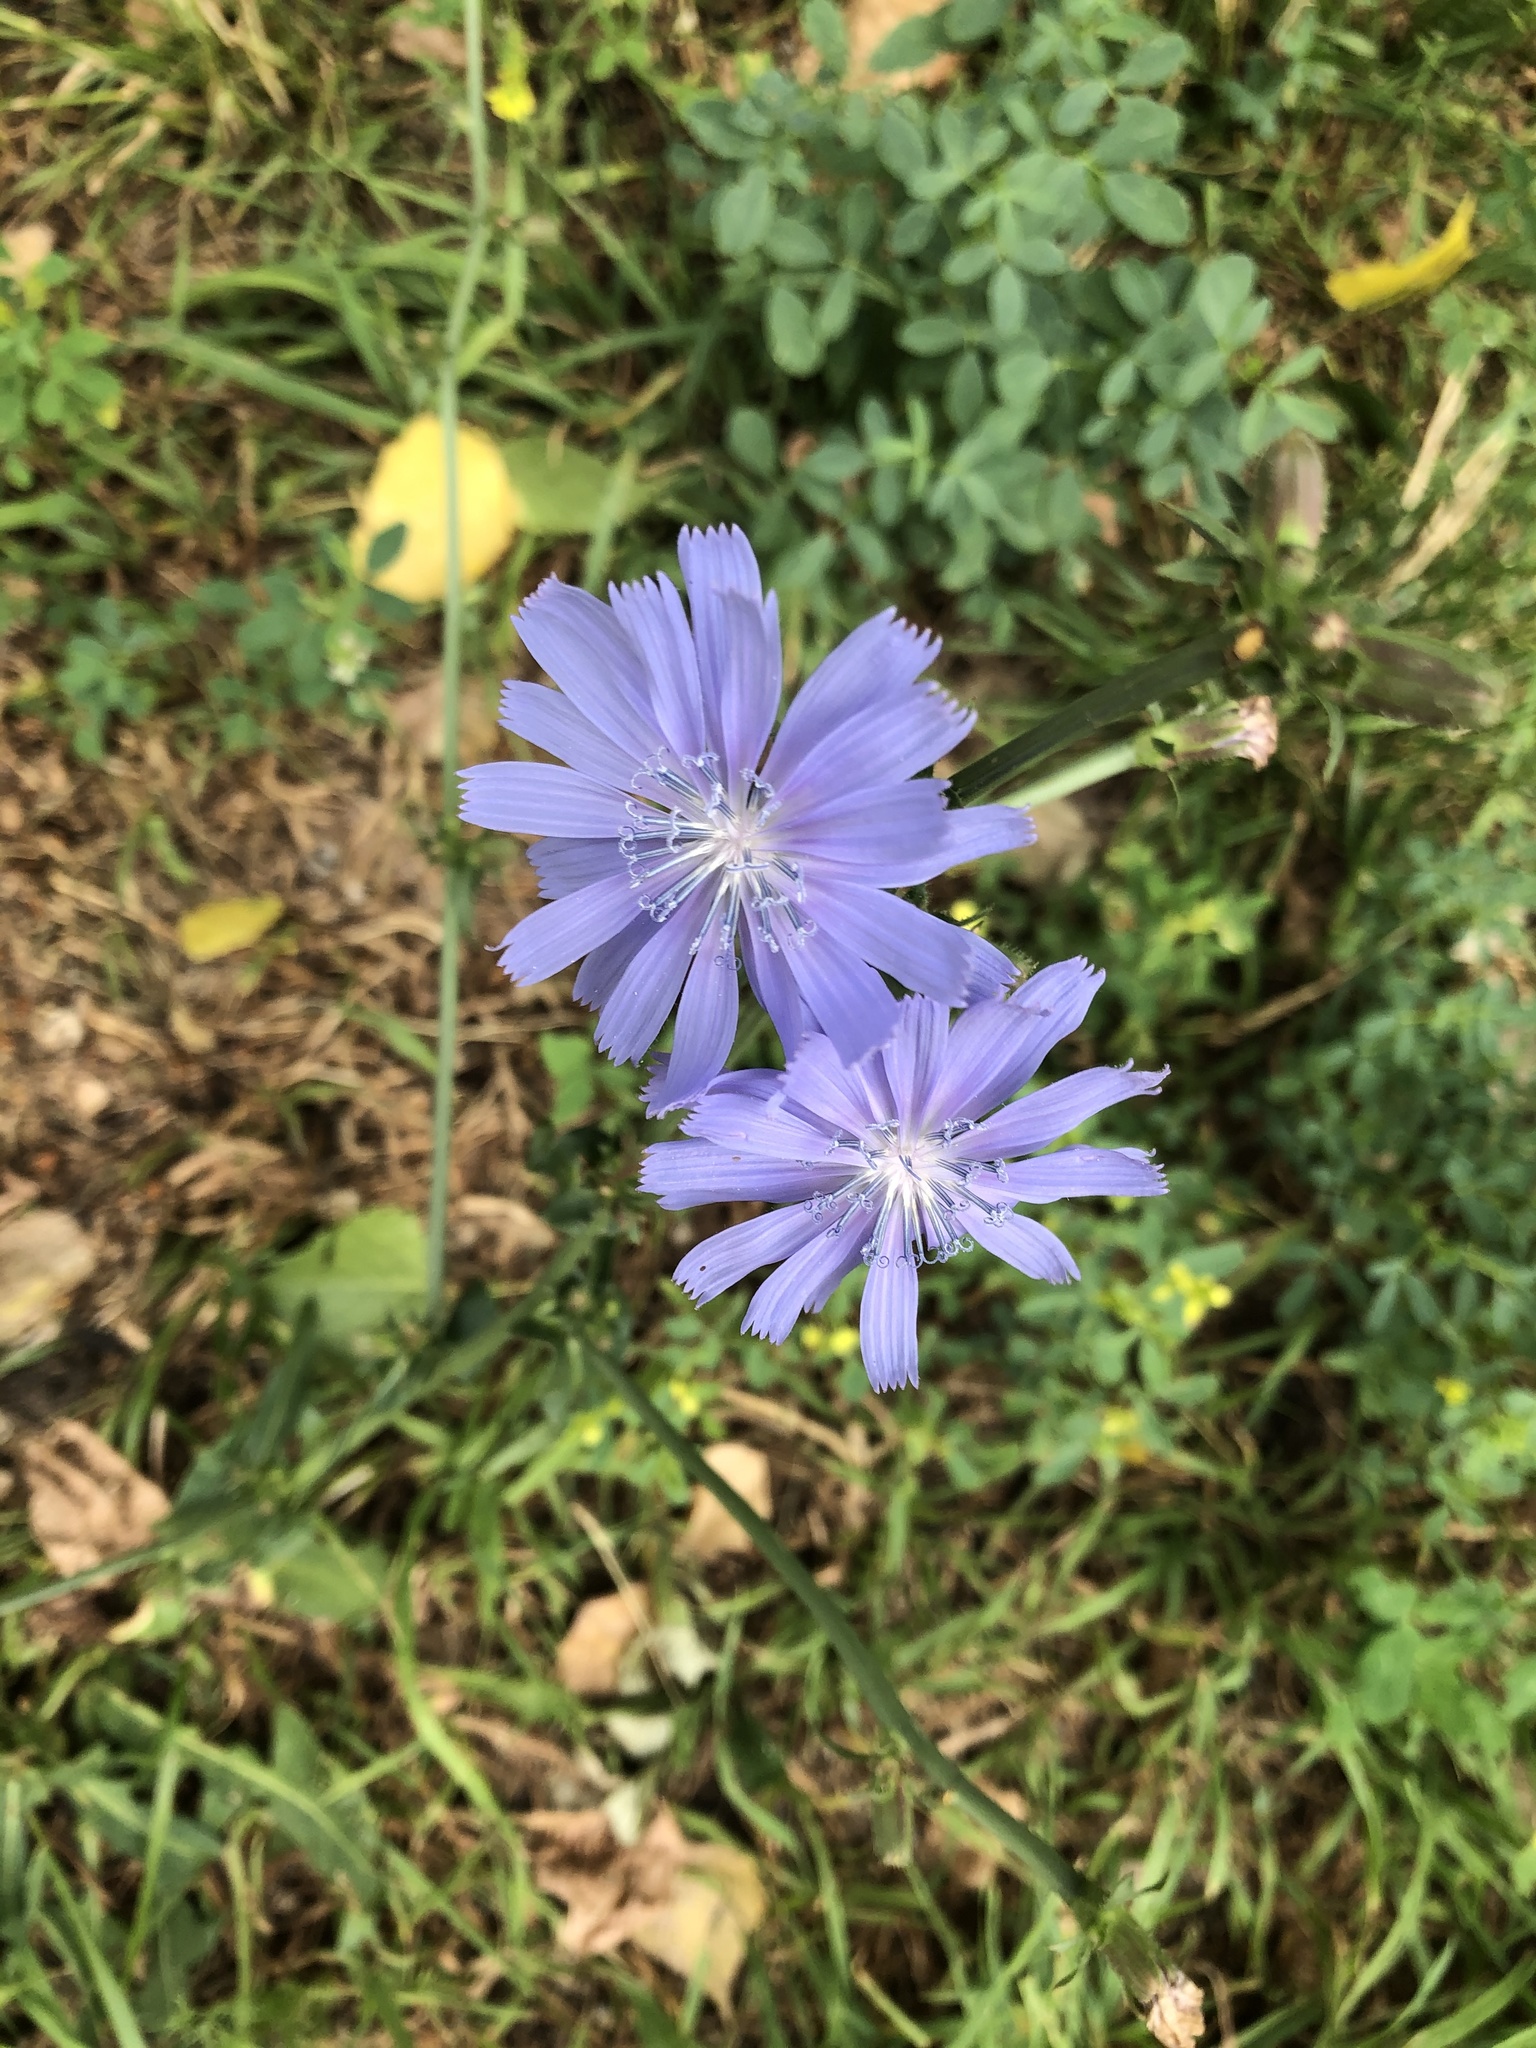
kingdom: Plantae
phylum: Tracheophyta
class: Magnoliopsida
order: Asterales
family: Asteraceae
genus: Cichorium
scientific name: Cichorium intybus
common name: Chicory
